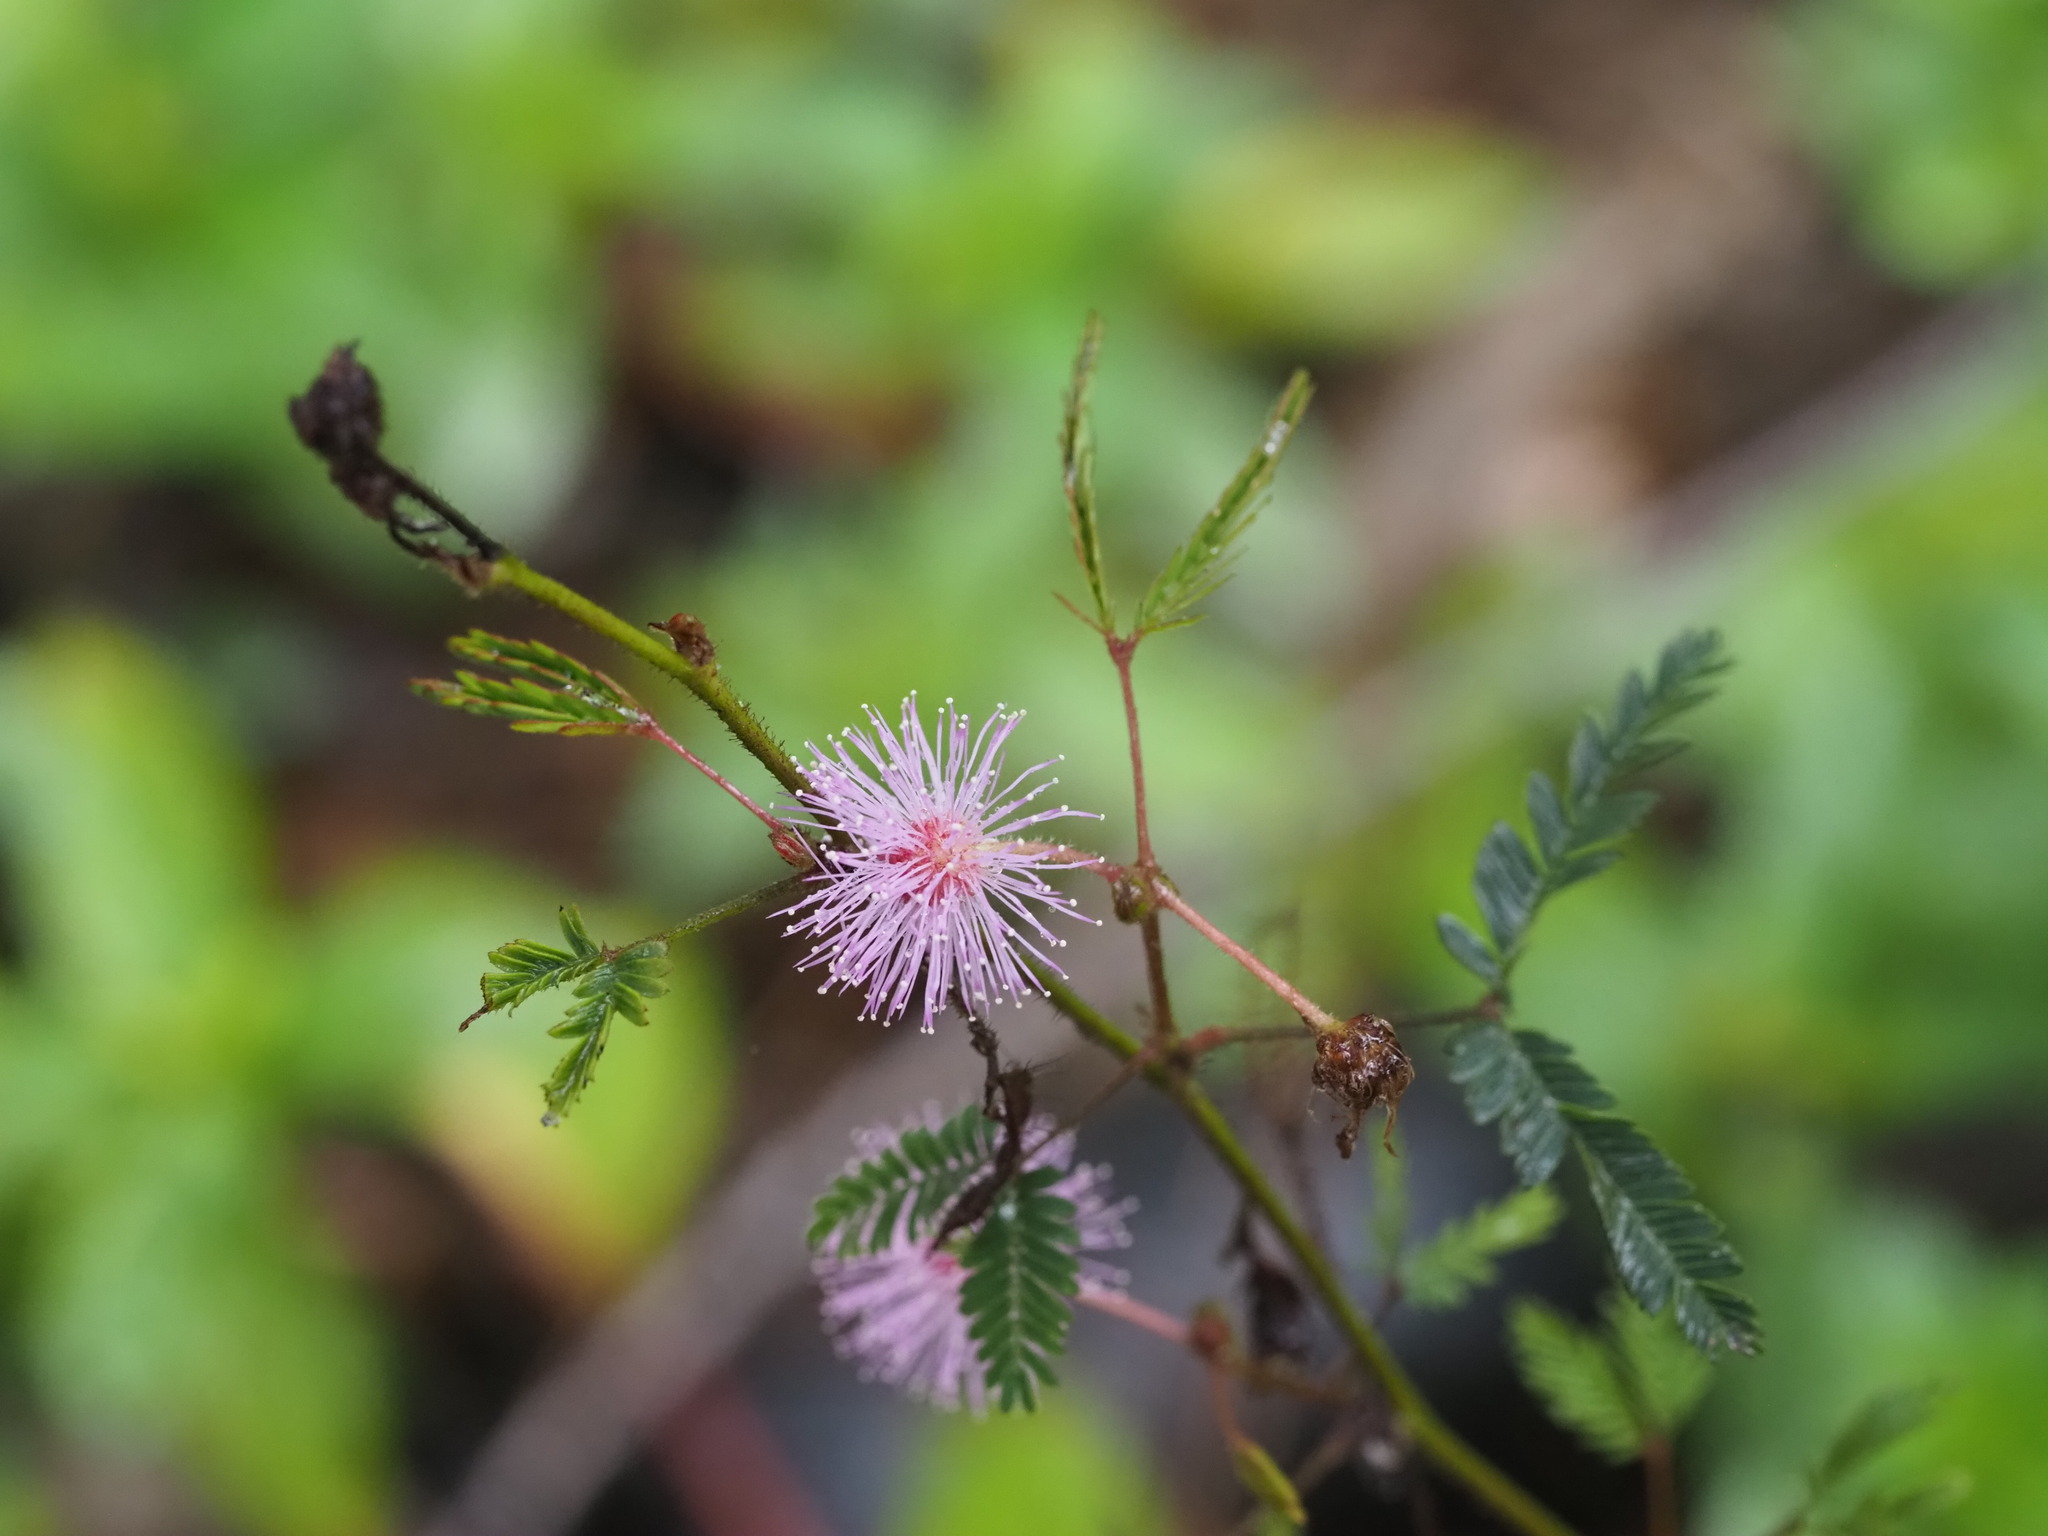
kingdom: Plantae
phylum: Tracheophyta
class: Magnoliopsida
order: Fabales
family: Fabaceae
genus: Mimosa
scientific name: Mimosa pudica
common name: Sensitive plant
